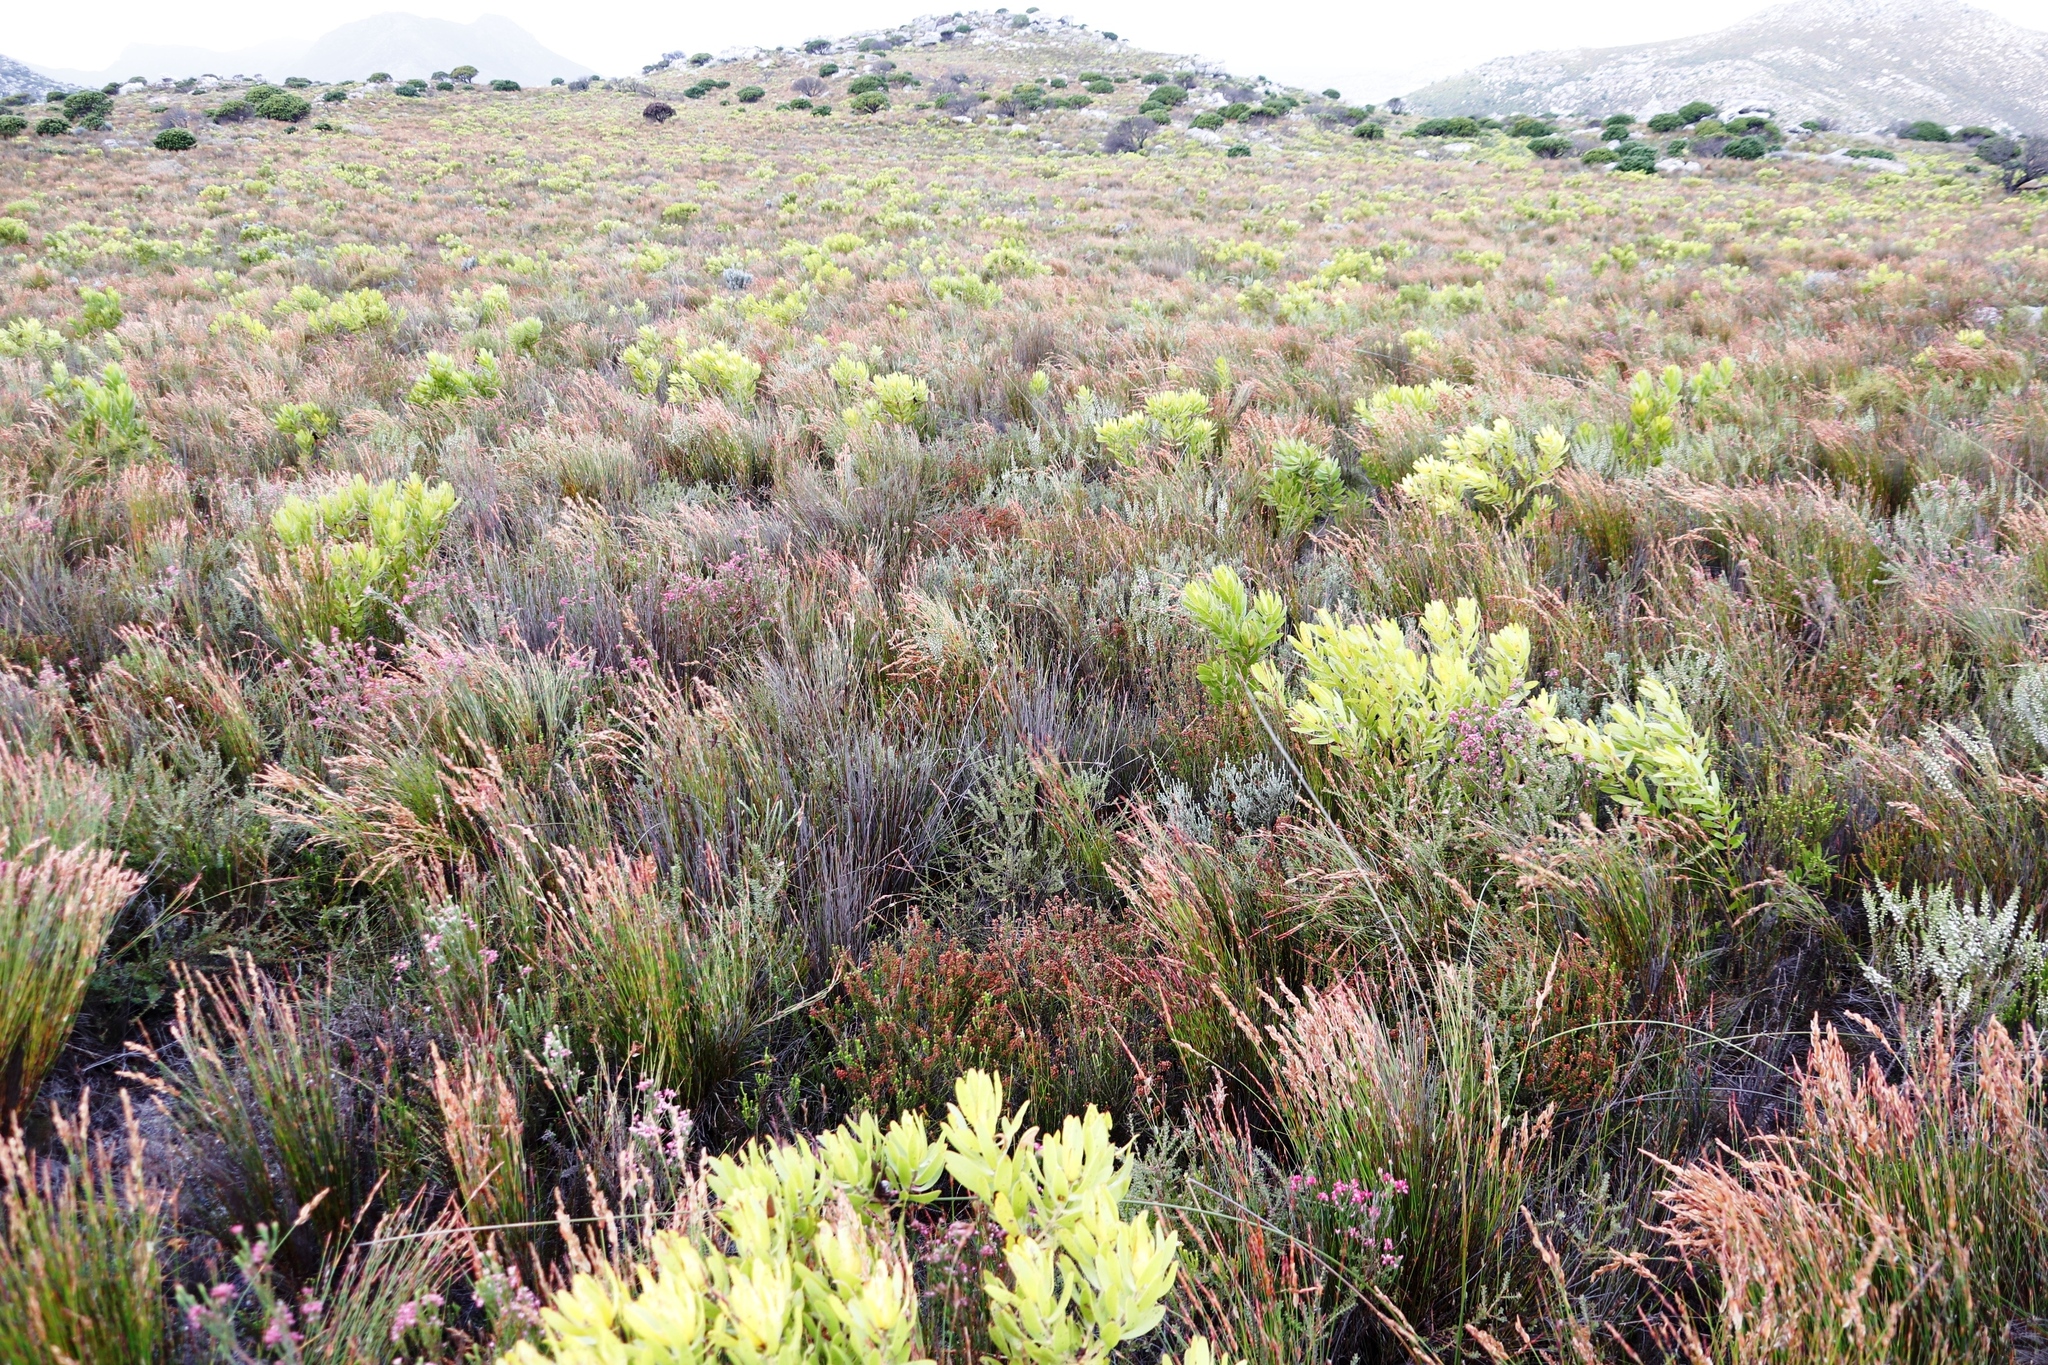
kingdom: Plantae
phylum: Tracheophyta
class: Magnoliopsida
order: Ericales
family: Ericaceae
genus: Erica
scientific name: Erica pulchella
